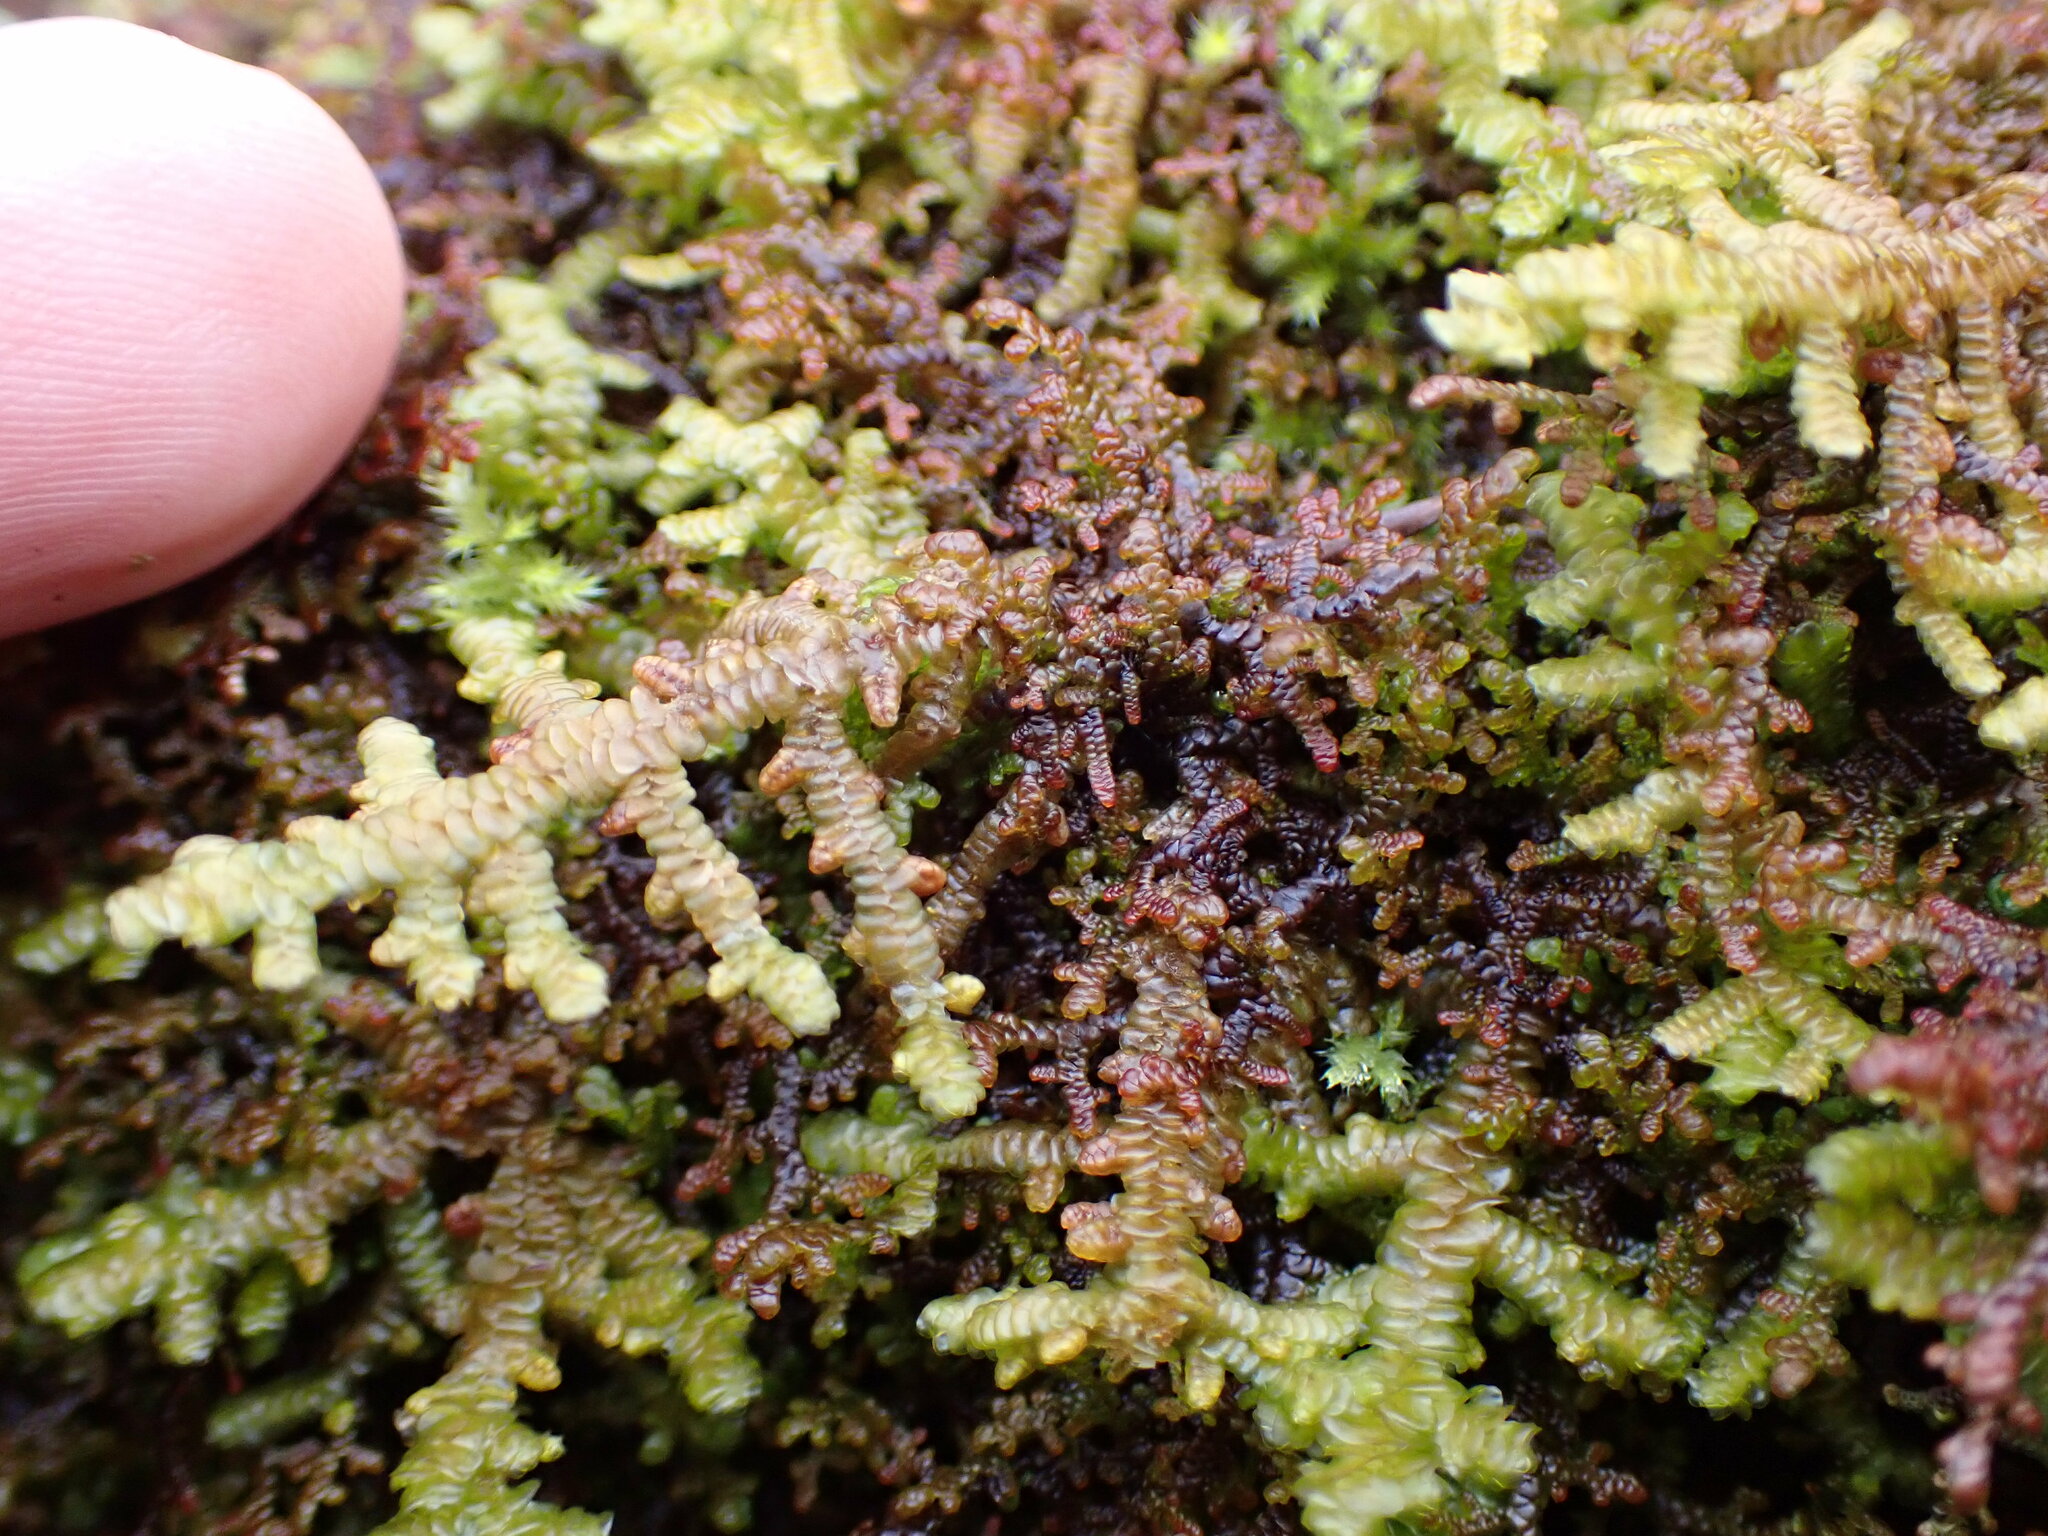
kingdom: Plantae
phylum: Marchantiophyta
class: Jungermanniopsida
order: Porellales
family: Porellaceae
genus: Porella
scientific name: Porella navicularis
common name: Tree ruffle liverwort
